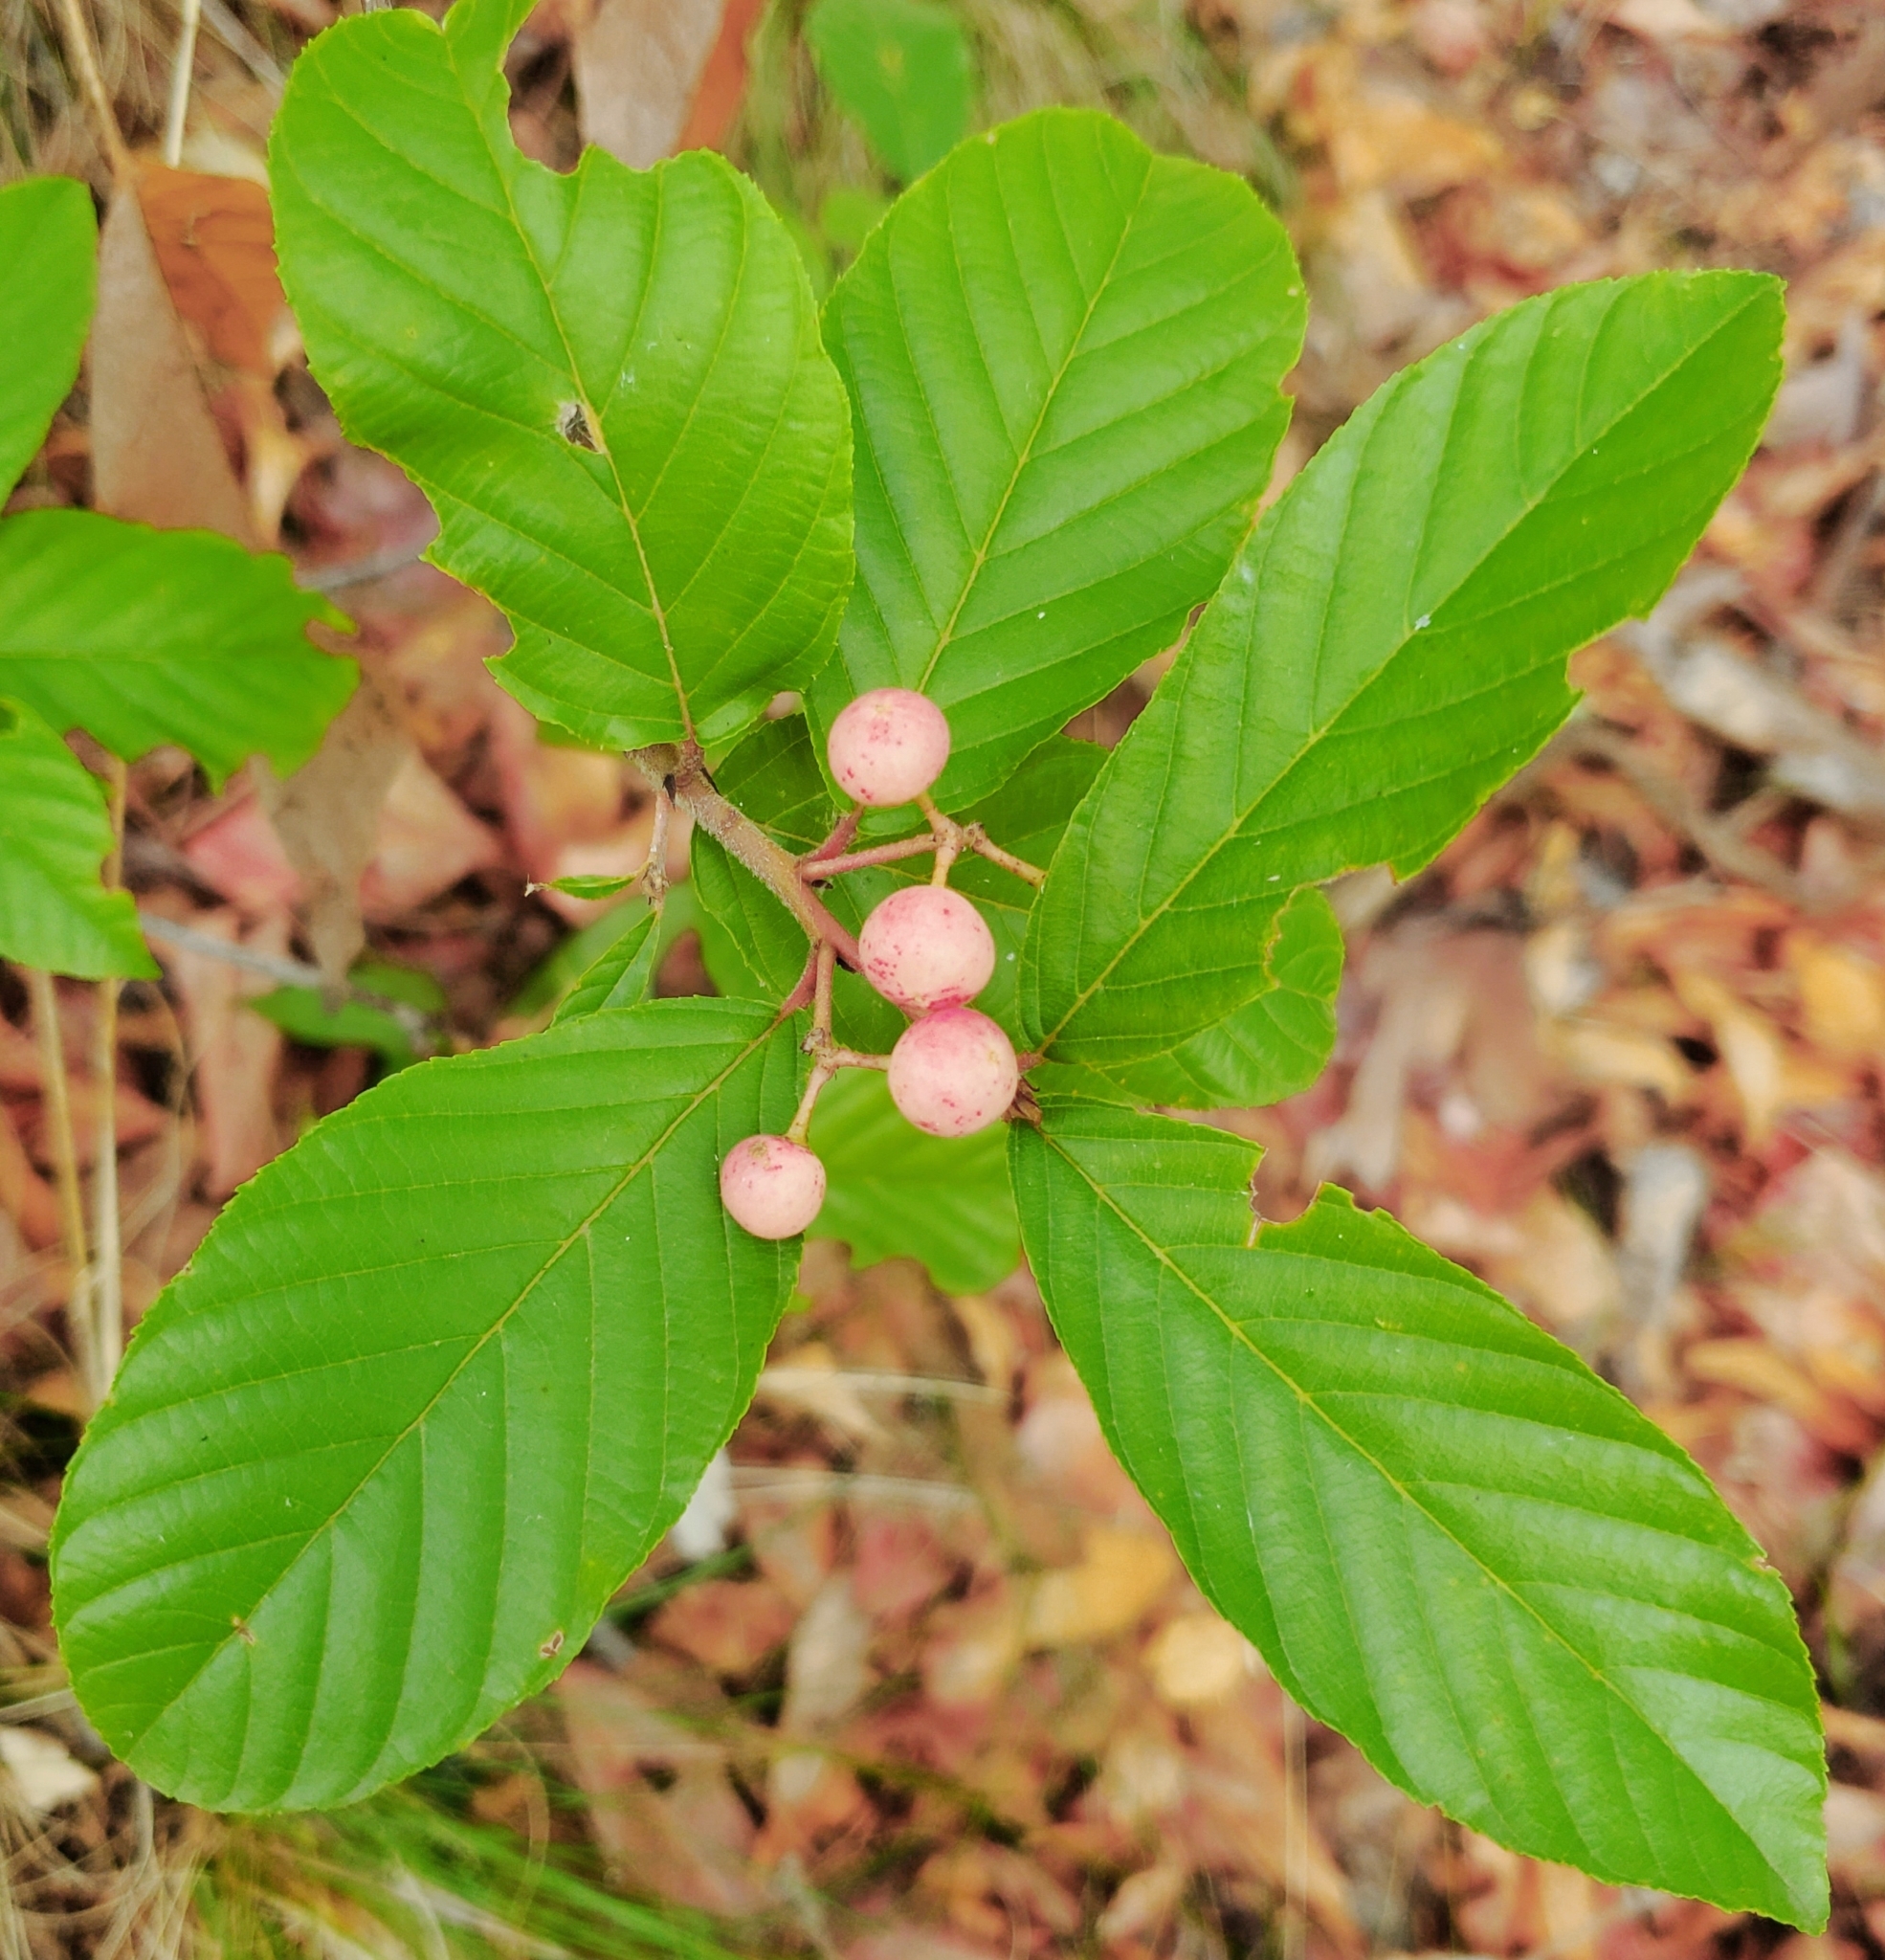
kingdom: Plantae
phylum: Tracheophyta
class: Magnoliopsida
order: Rosales
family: Rhamnaceae
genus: Frangula
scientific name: Frangula betulifolia
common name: Birch-leaf buckthorn
